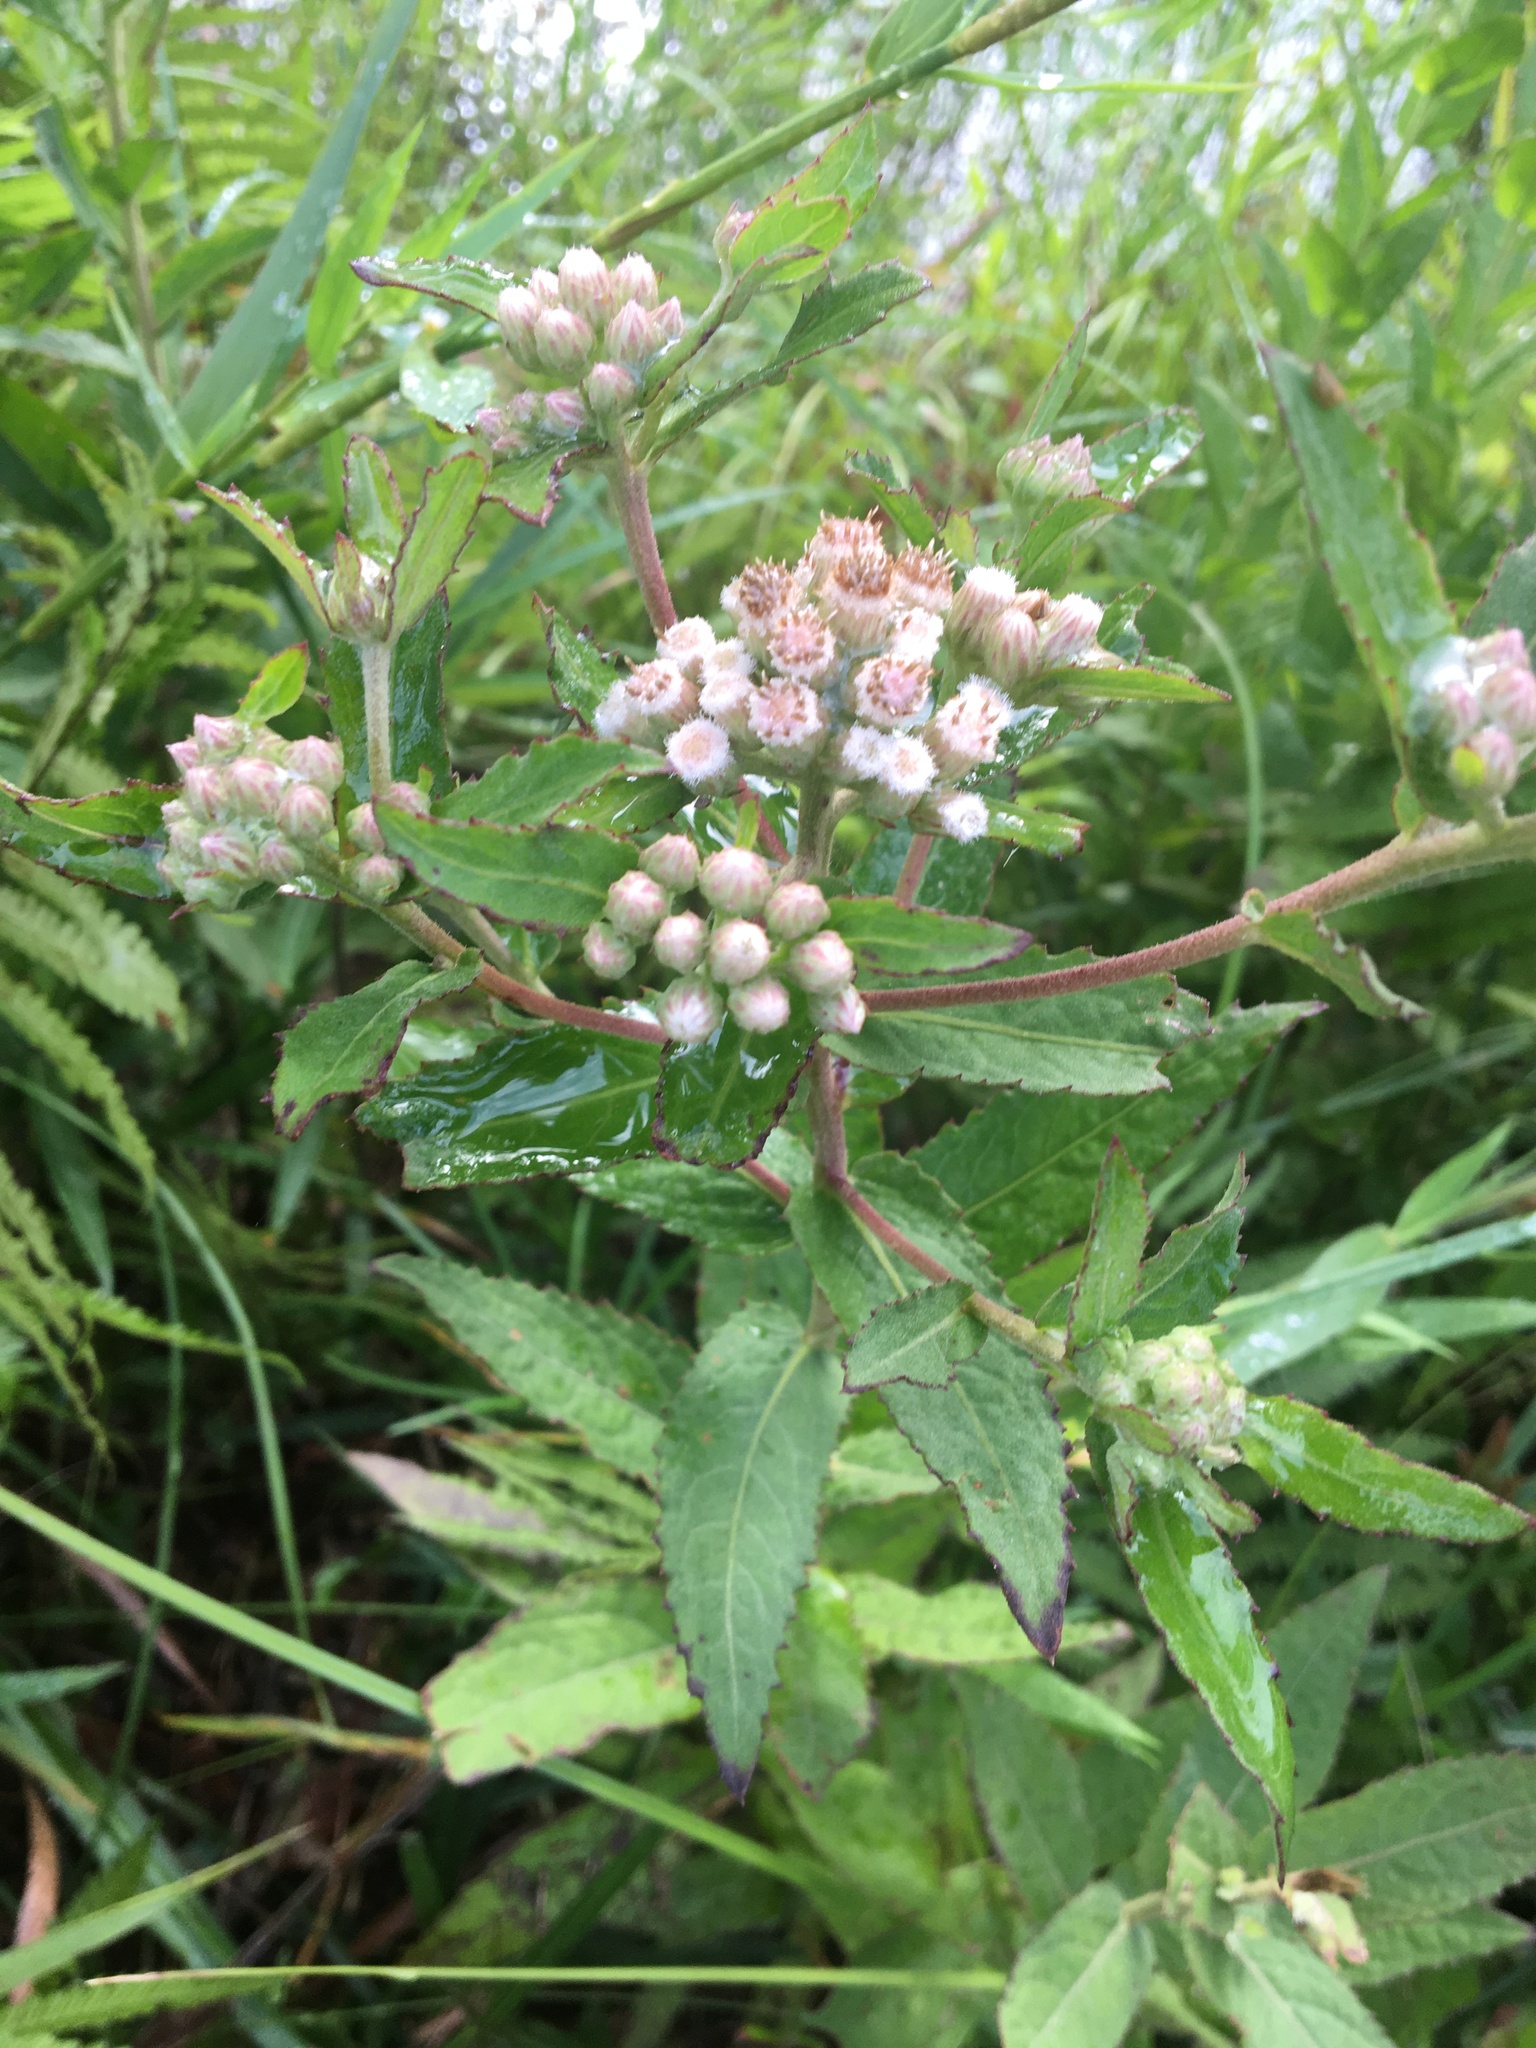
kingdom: Plantae
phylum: Tracheophyta
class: Magnoliopsida
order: Asterales
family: Asteraceae
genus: Pluchea
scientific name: Pluchea foetida
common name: Stinking camphorweed
